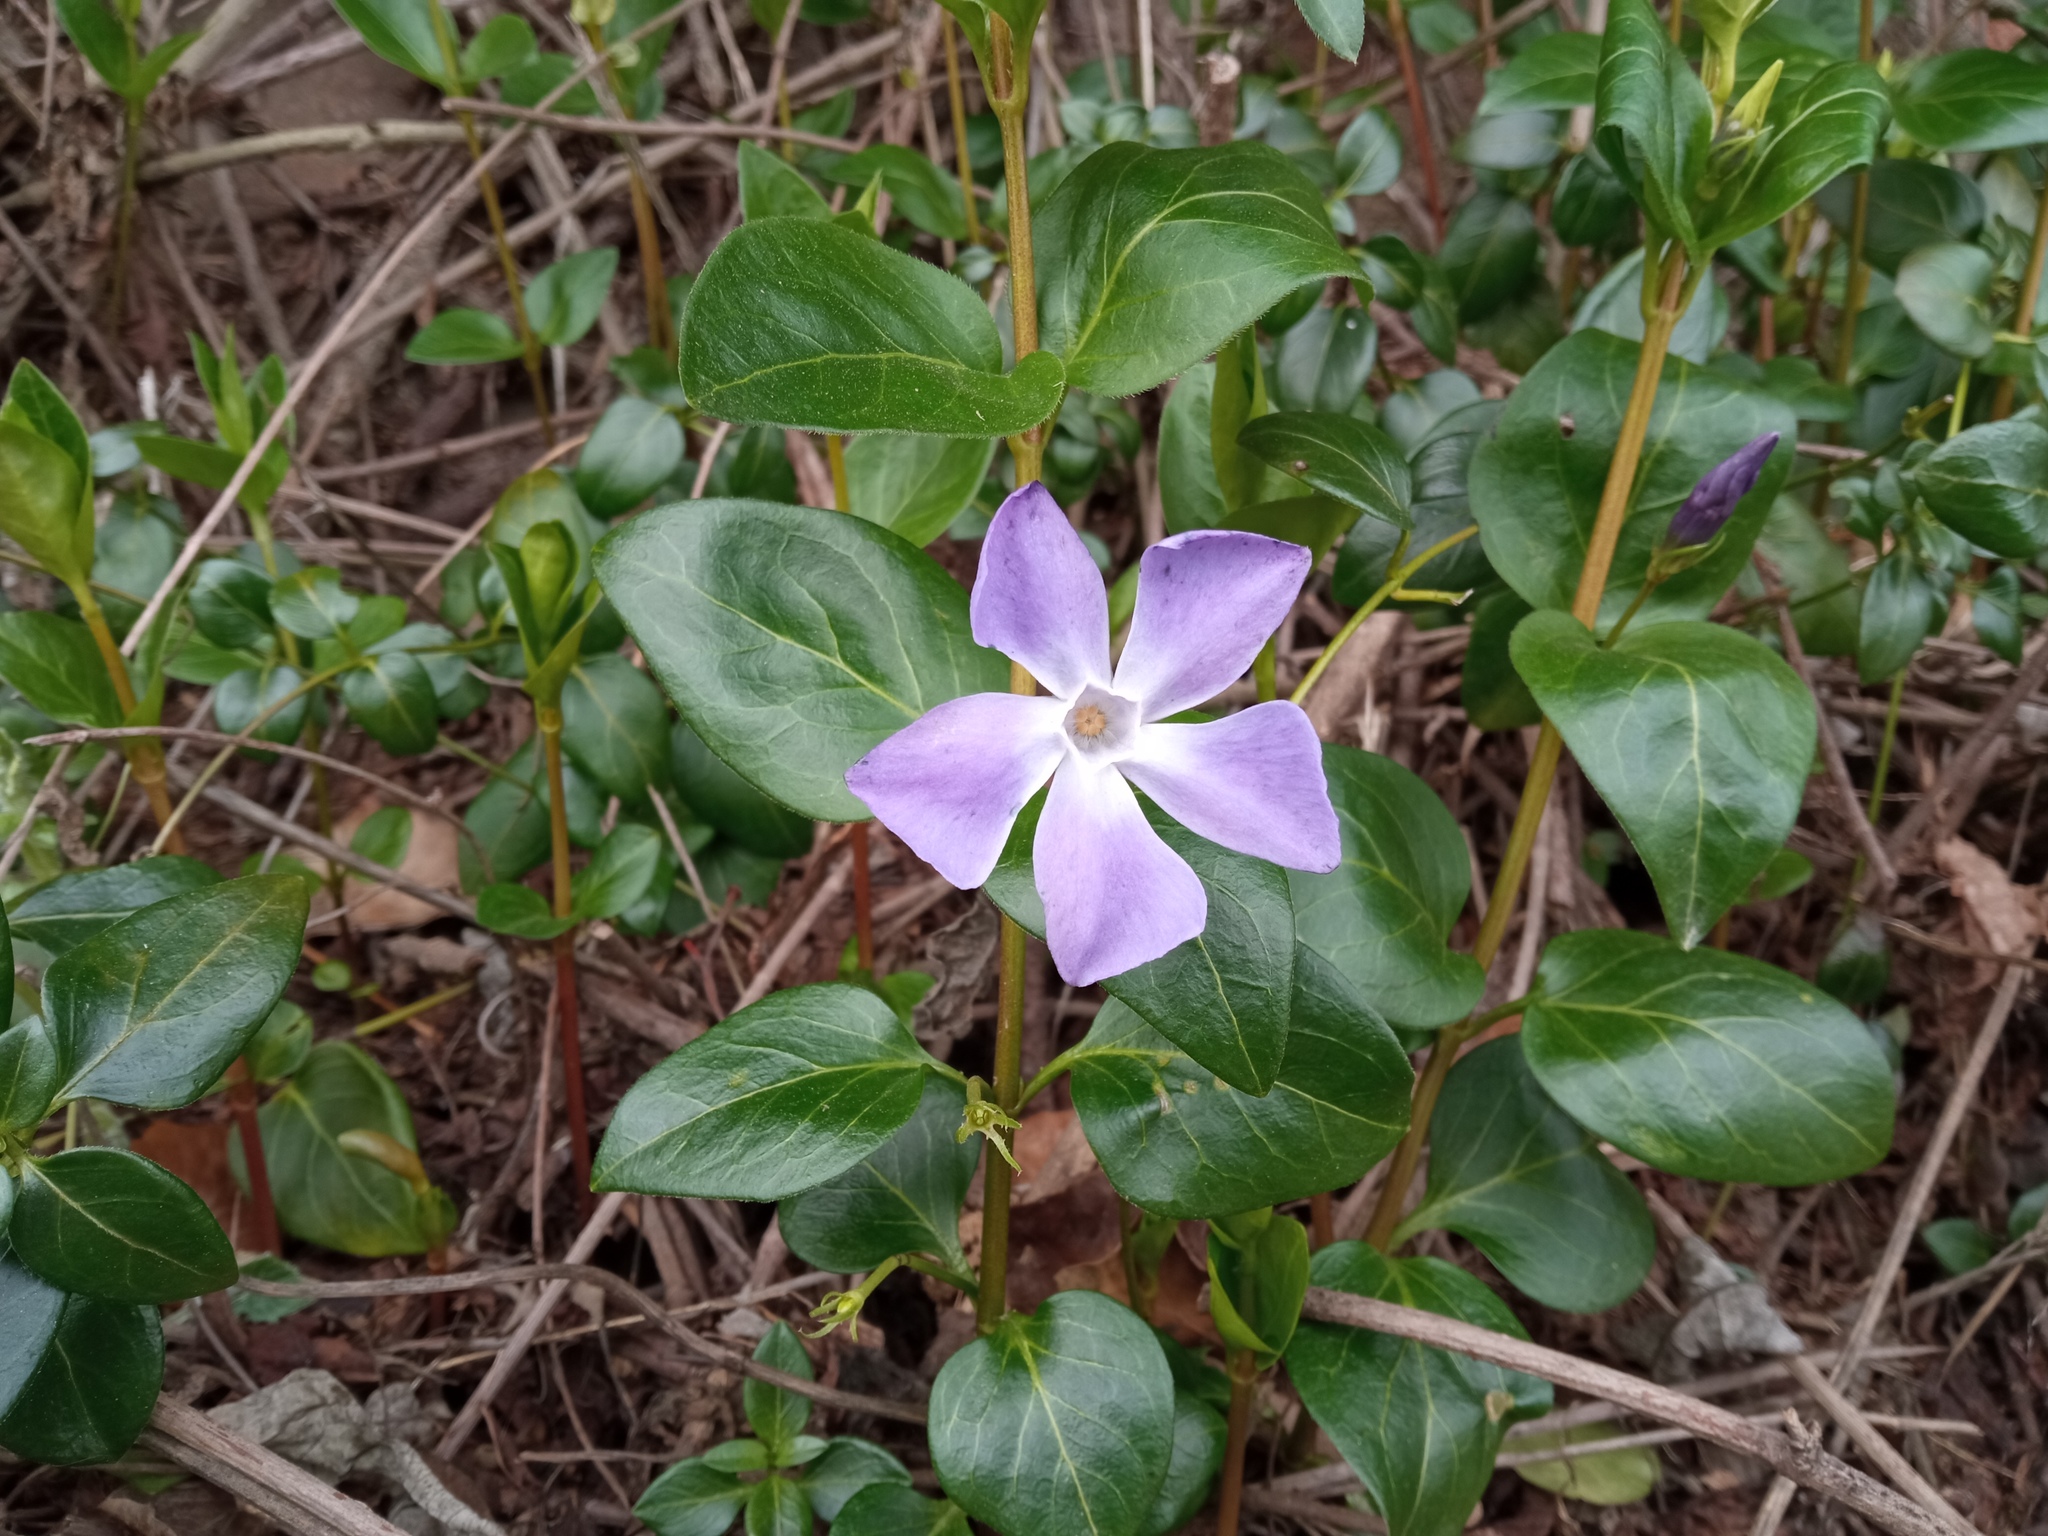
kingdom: Plantae
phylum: Tracheophyta
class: Magnoliopsida
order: Gentianales
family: Apocynaceae
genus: Vinca
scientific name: Vinca major
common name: Greater periwinkle
